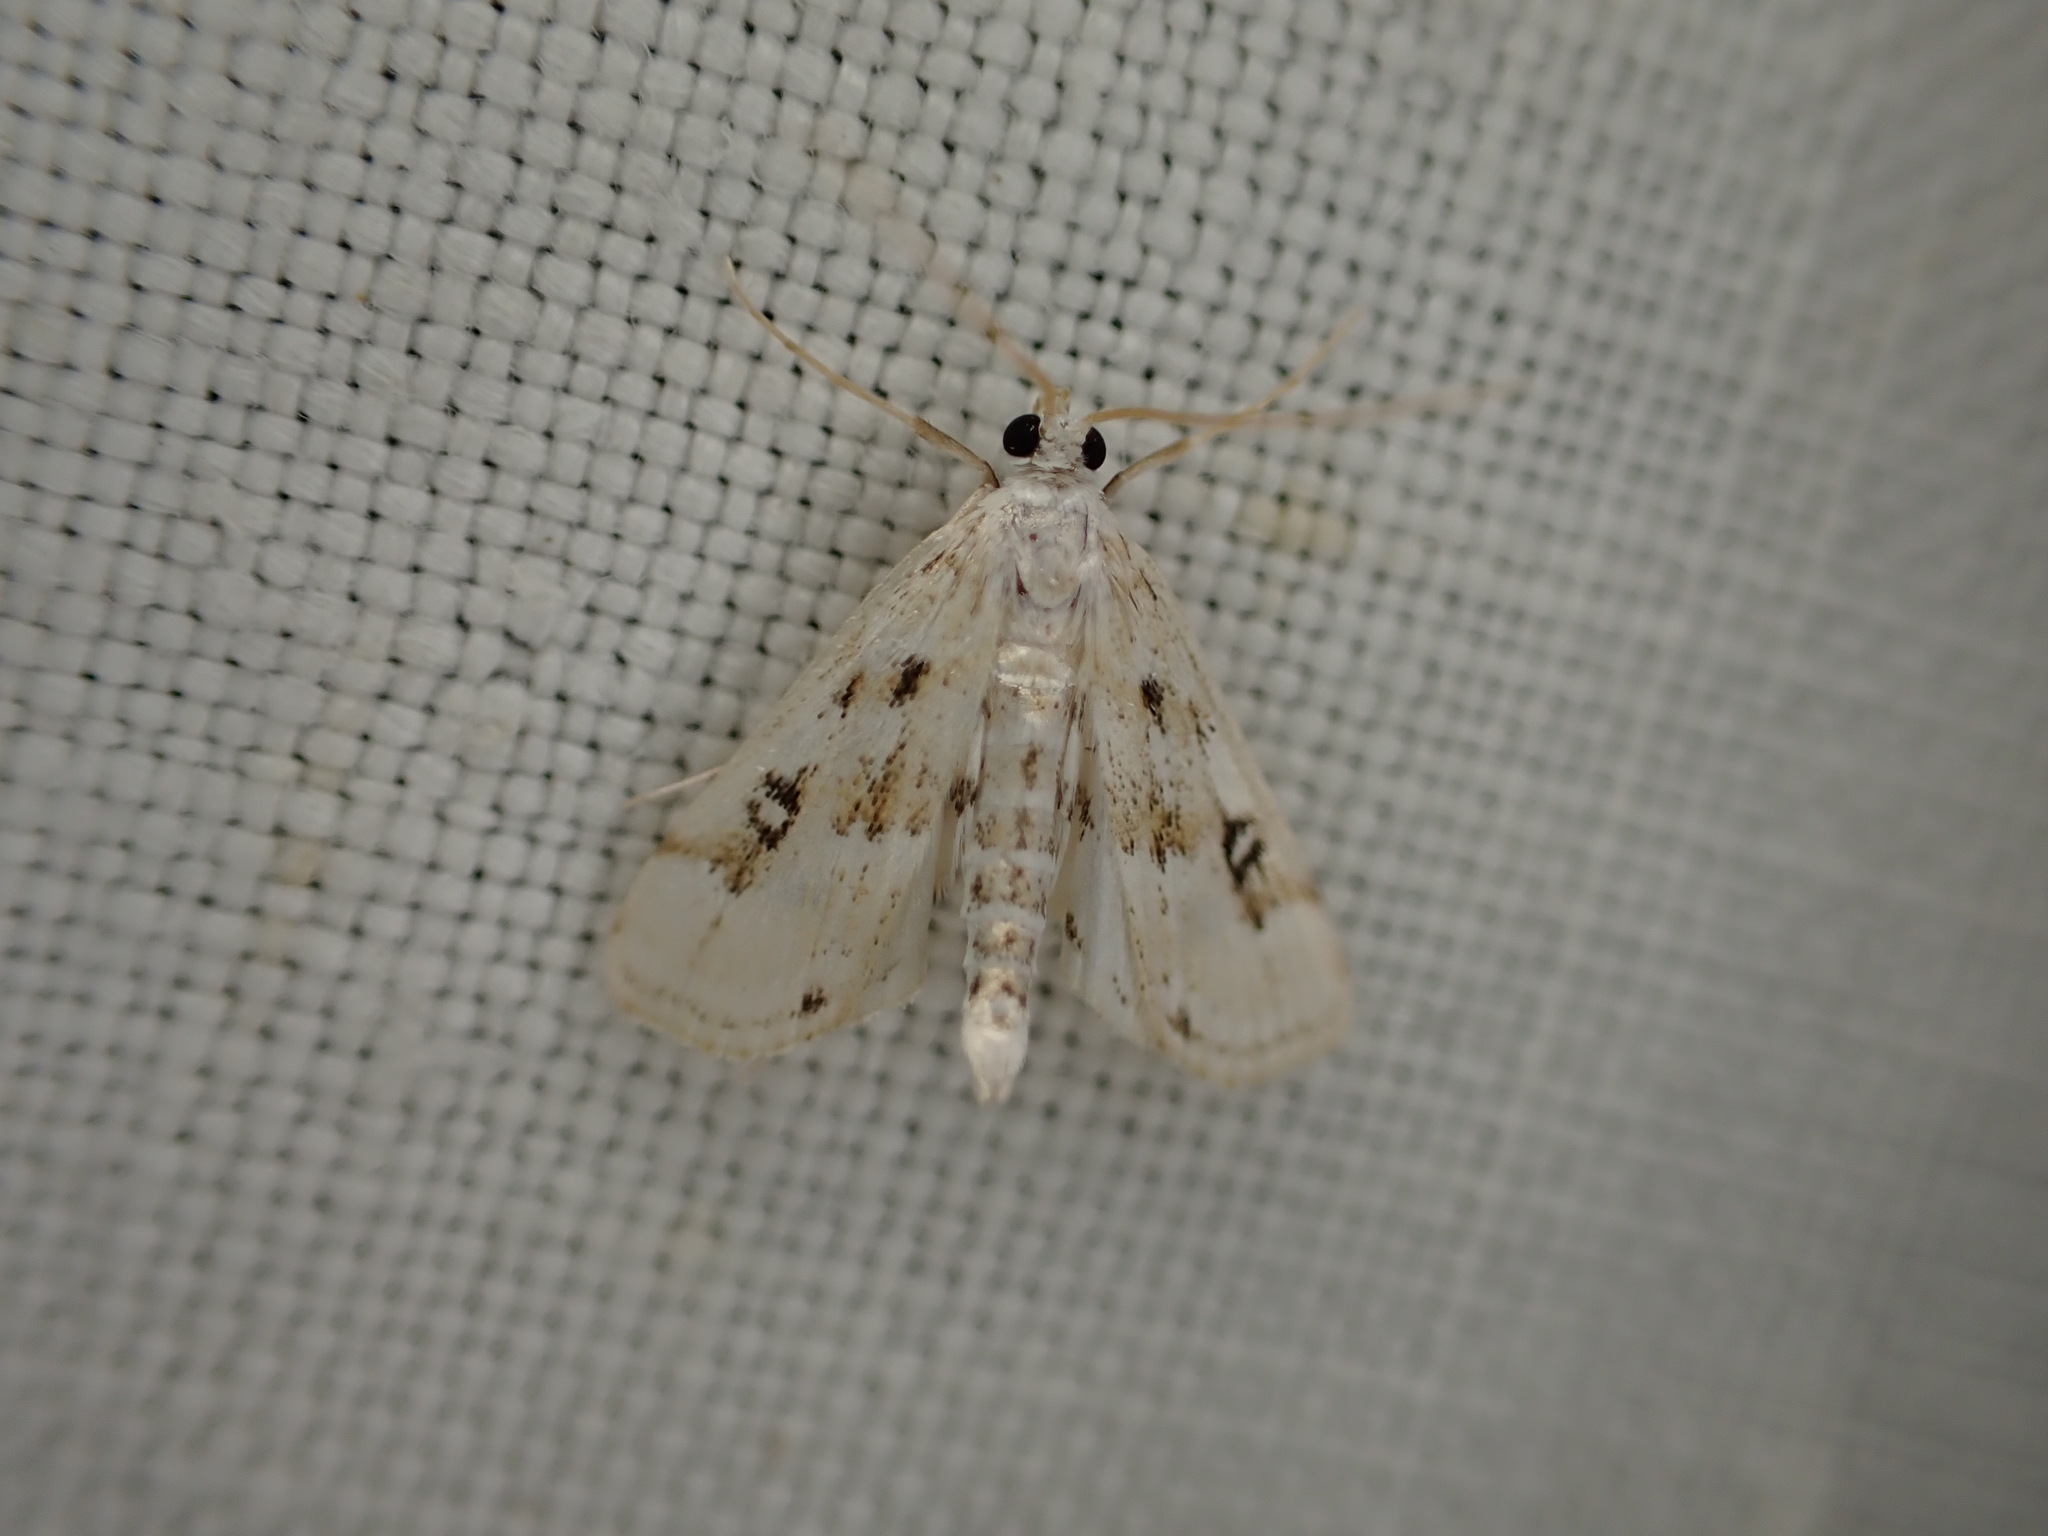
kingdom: Animalia
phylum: Arthropoda
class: Insecta
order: Lepidoptera
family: Crambidae
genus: Parapoynx
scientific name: Parapoynx stratiotata
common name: Ringed china-mark
